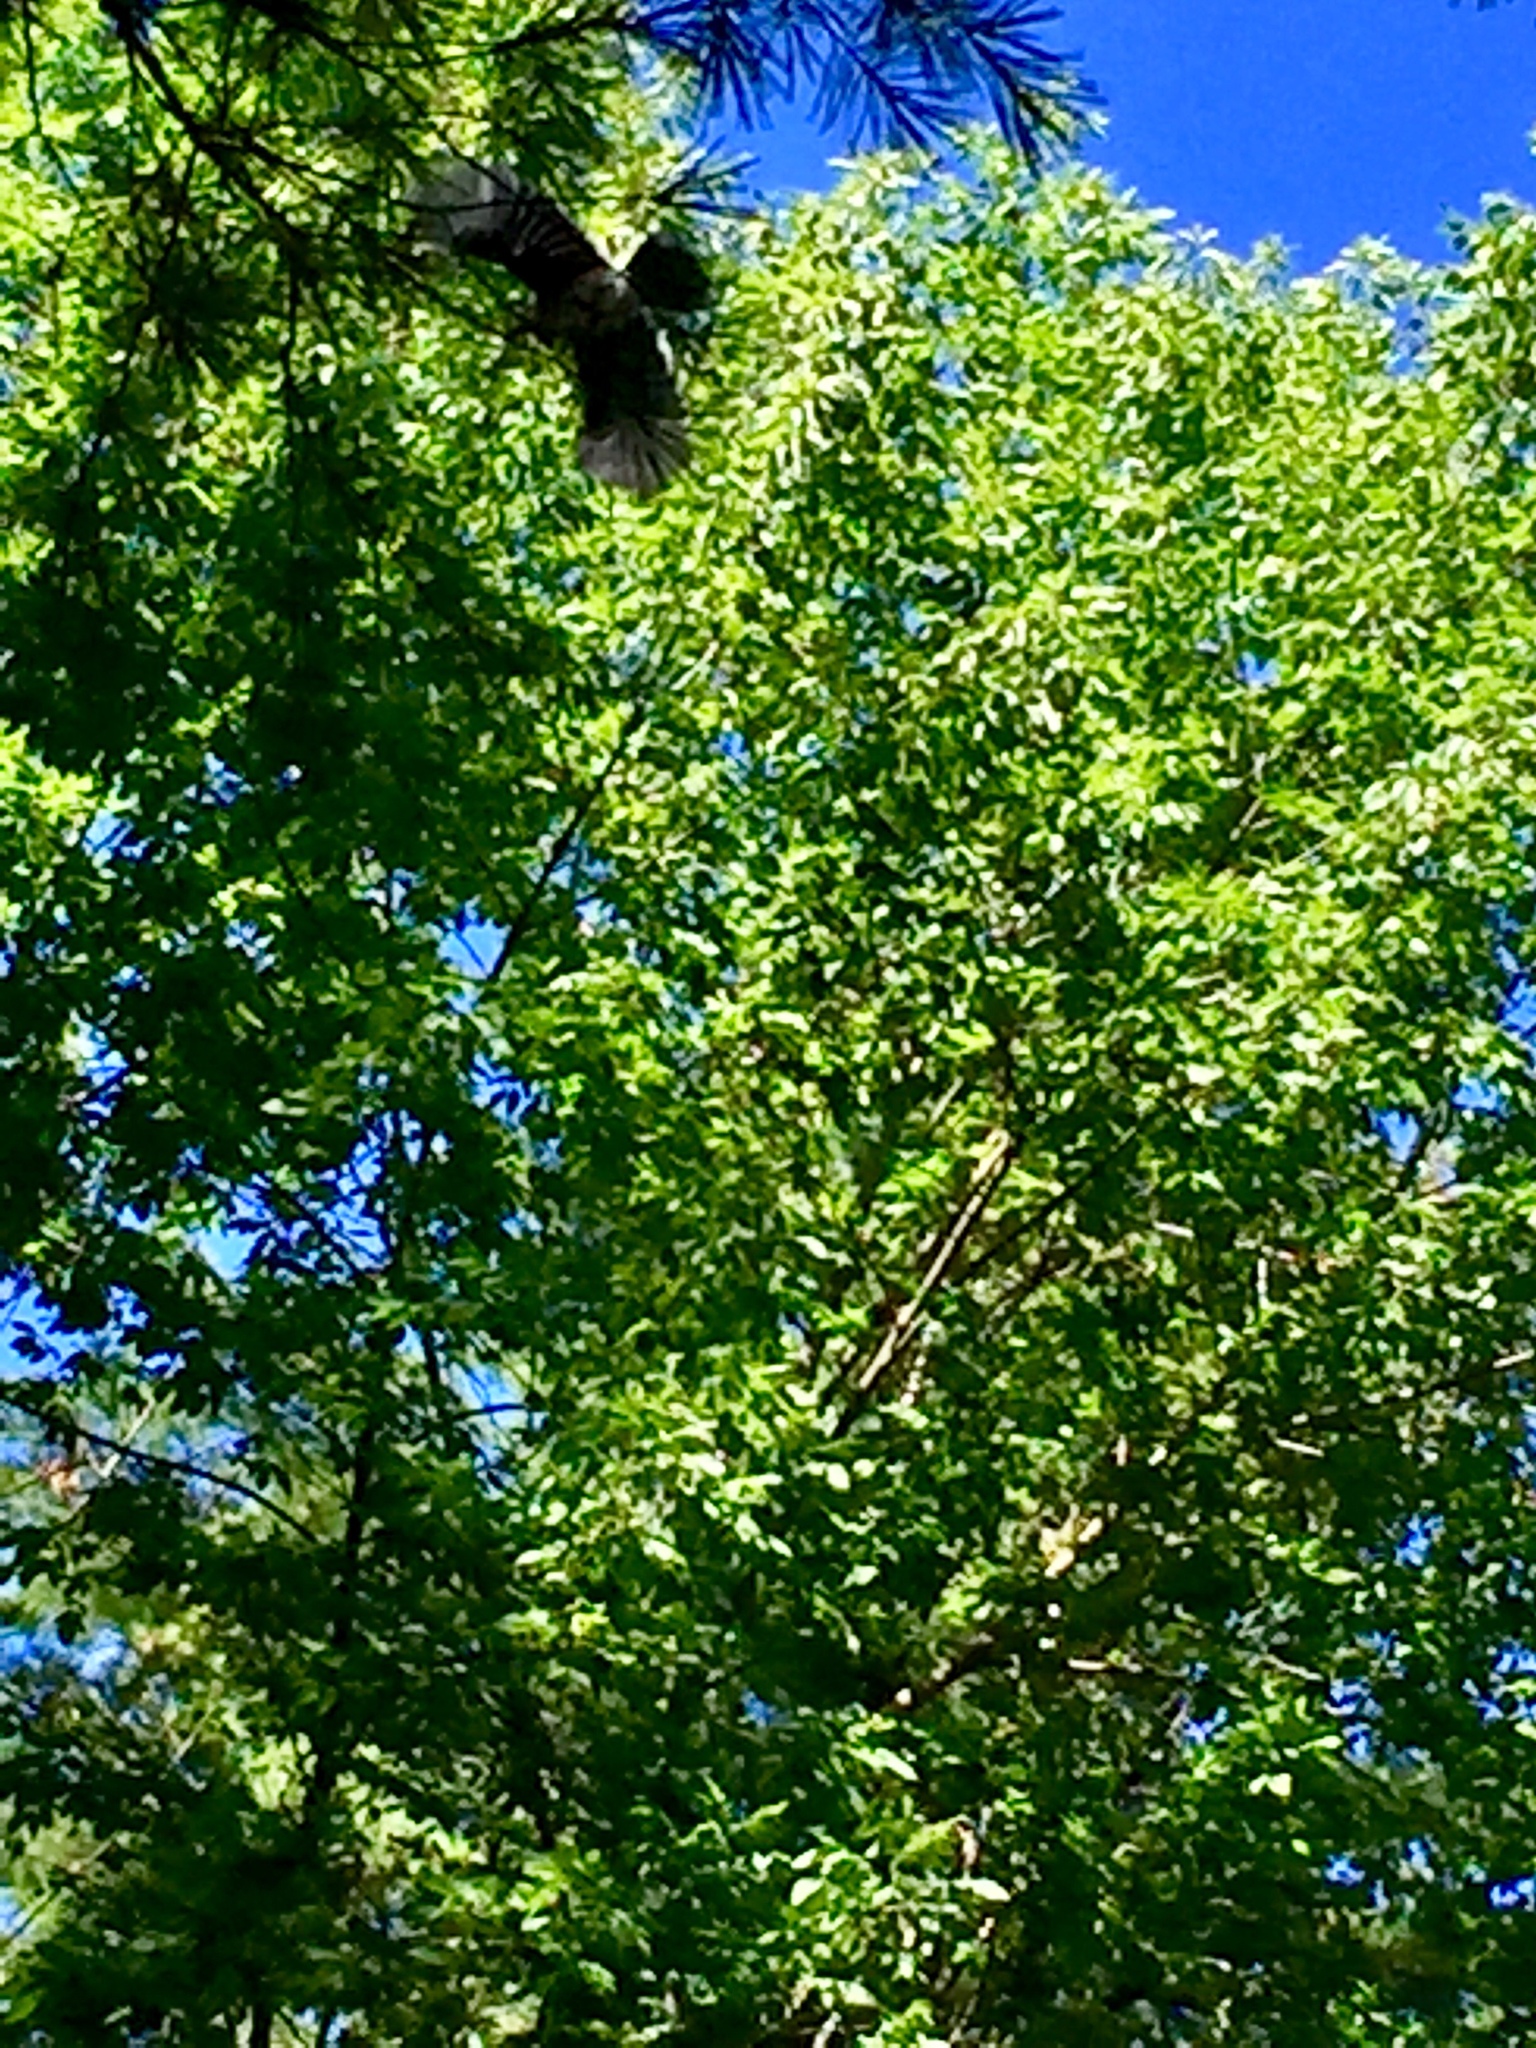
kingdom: Animalia
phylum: Chordata
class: Aves
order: Passeriformes
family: Corvidae
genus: Cyanocitta
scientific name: Cyanocitta cristata
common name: Blue jay
